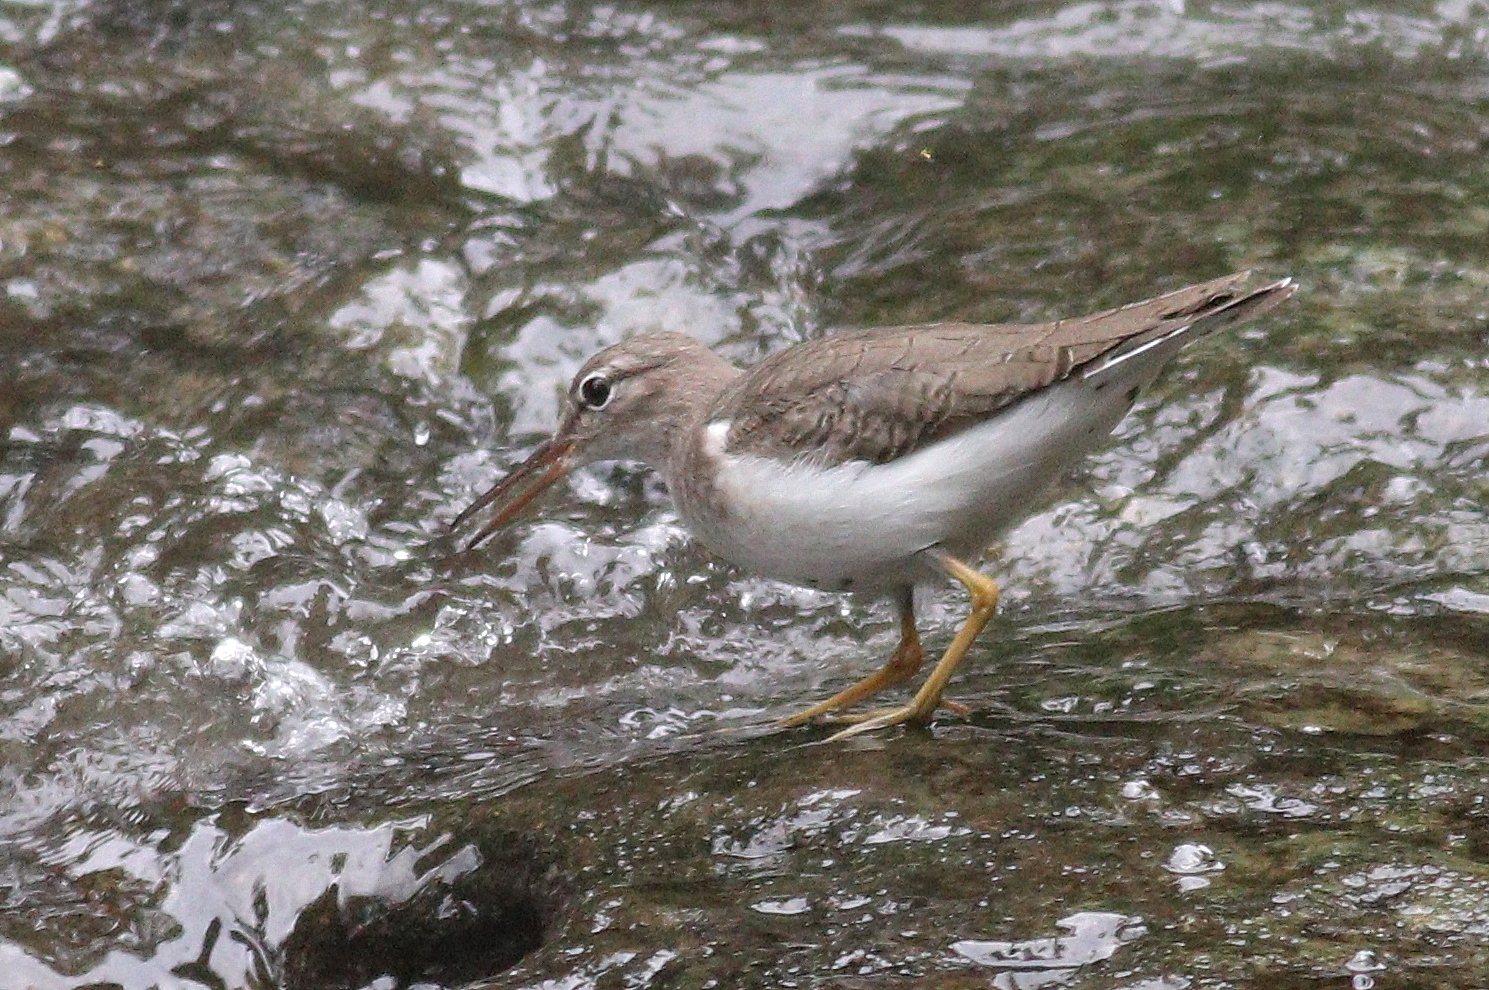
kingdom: Animalia
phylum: Chordata
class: Aves
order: Charadriiformes
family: Scolopacidae
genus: Actitis
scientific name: Actitis macularius
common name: Spotted sandpiper
